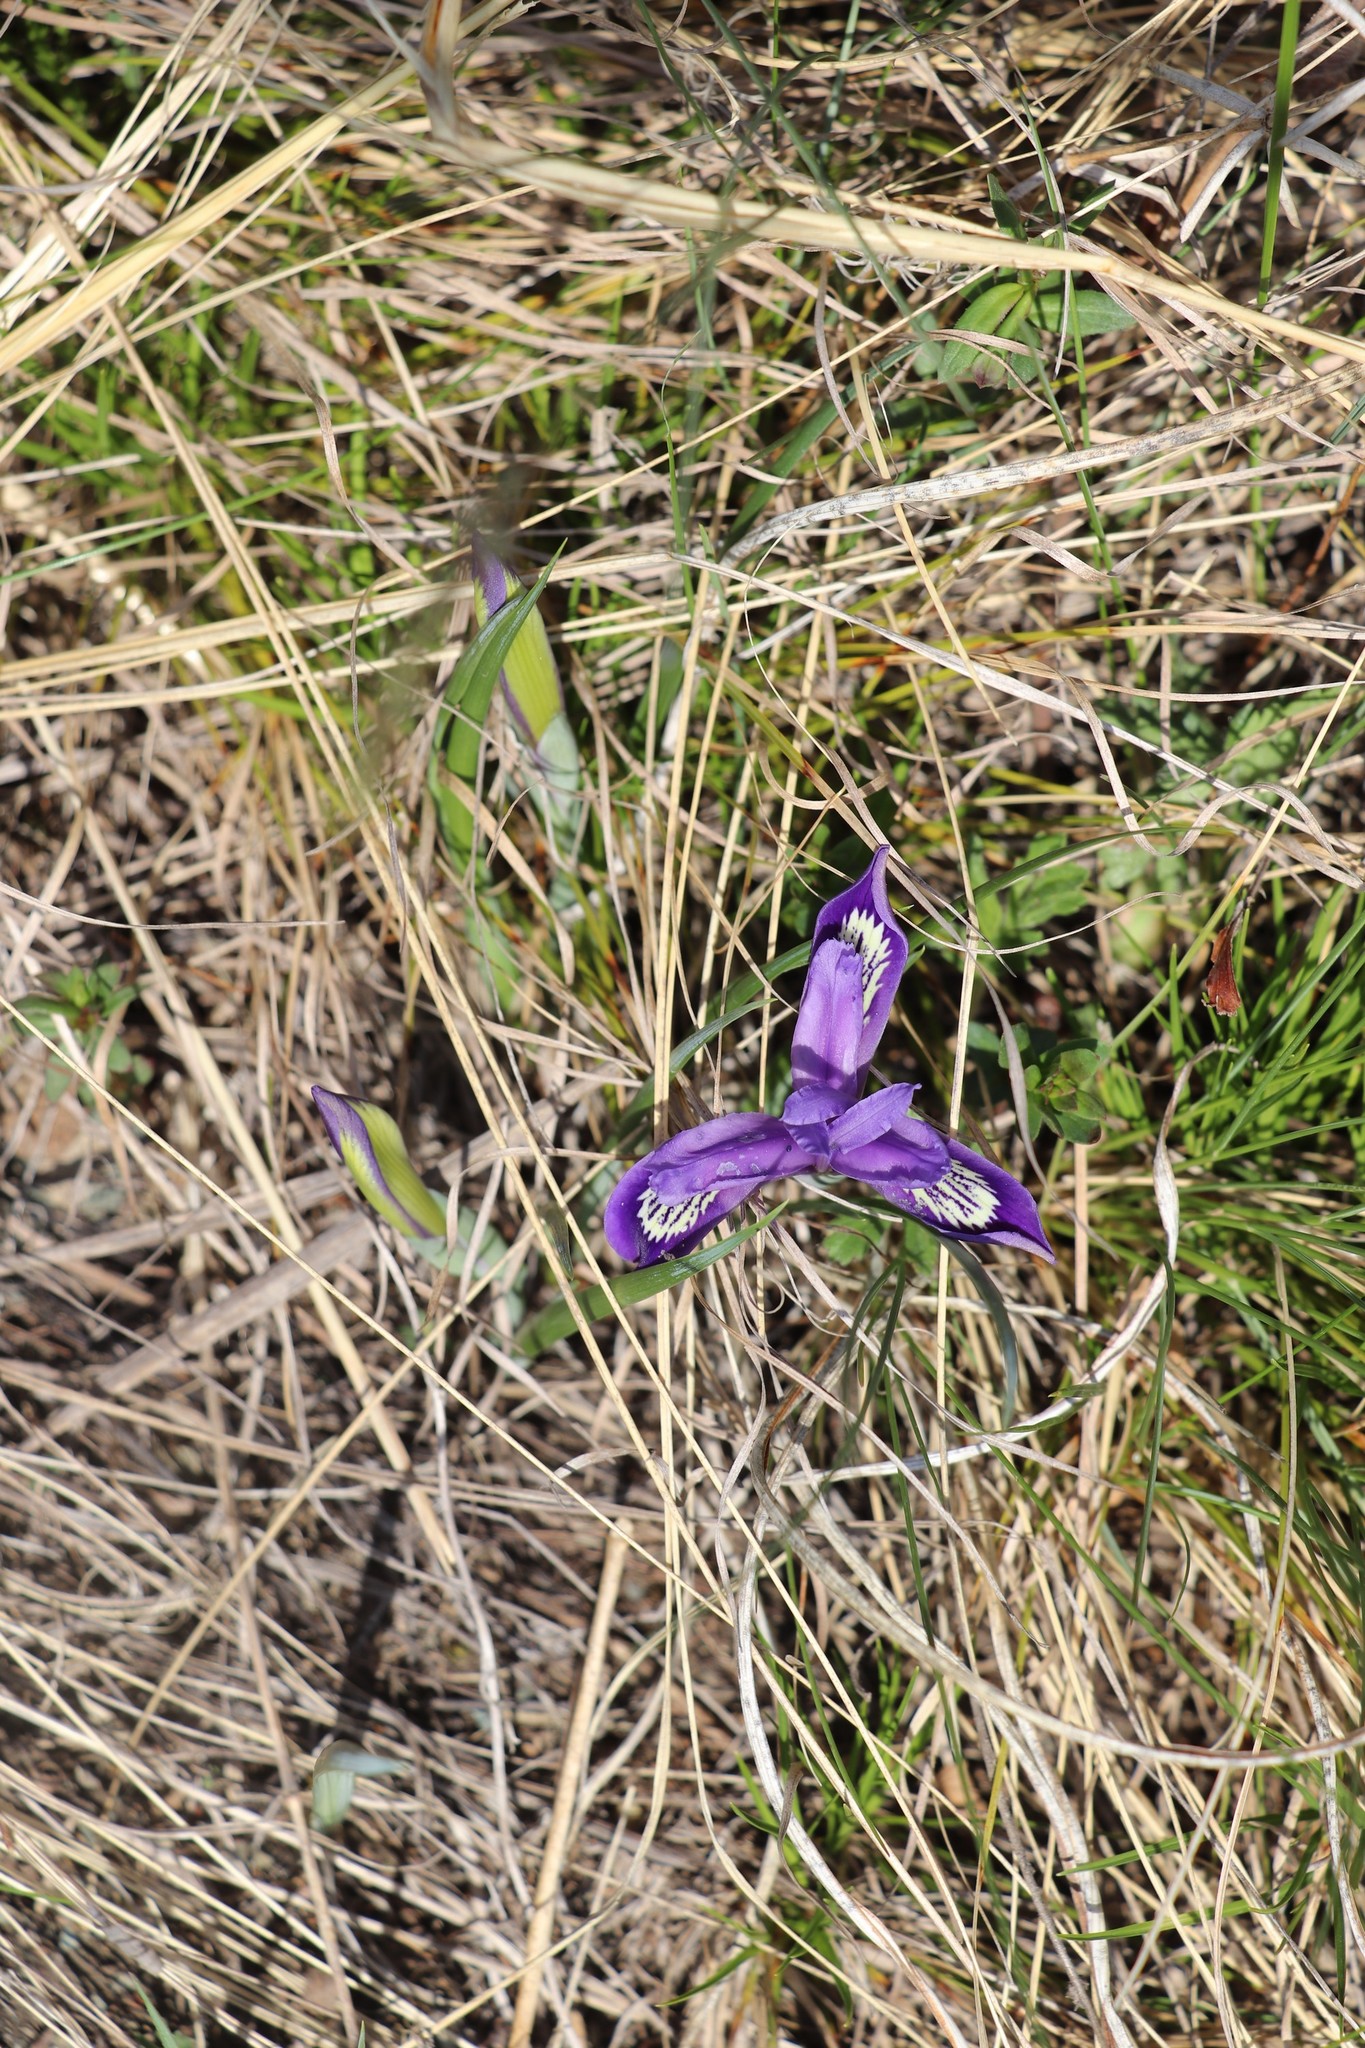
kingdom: Plantae
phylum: Tracheophyta
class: Liliopsida
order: Asparagales
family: Iridaceae
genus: Iris
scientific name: Iris ruthenica
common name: Purple-bract iris
